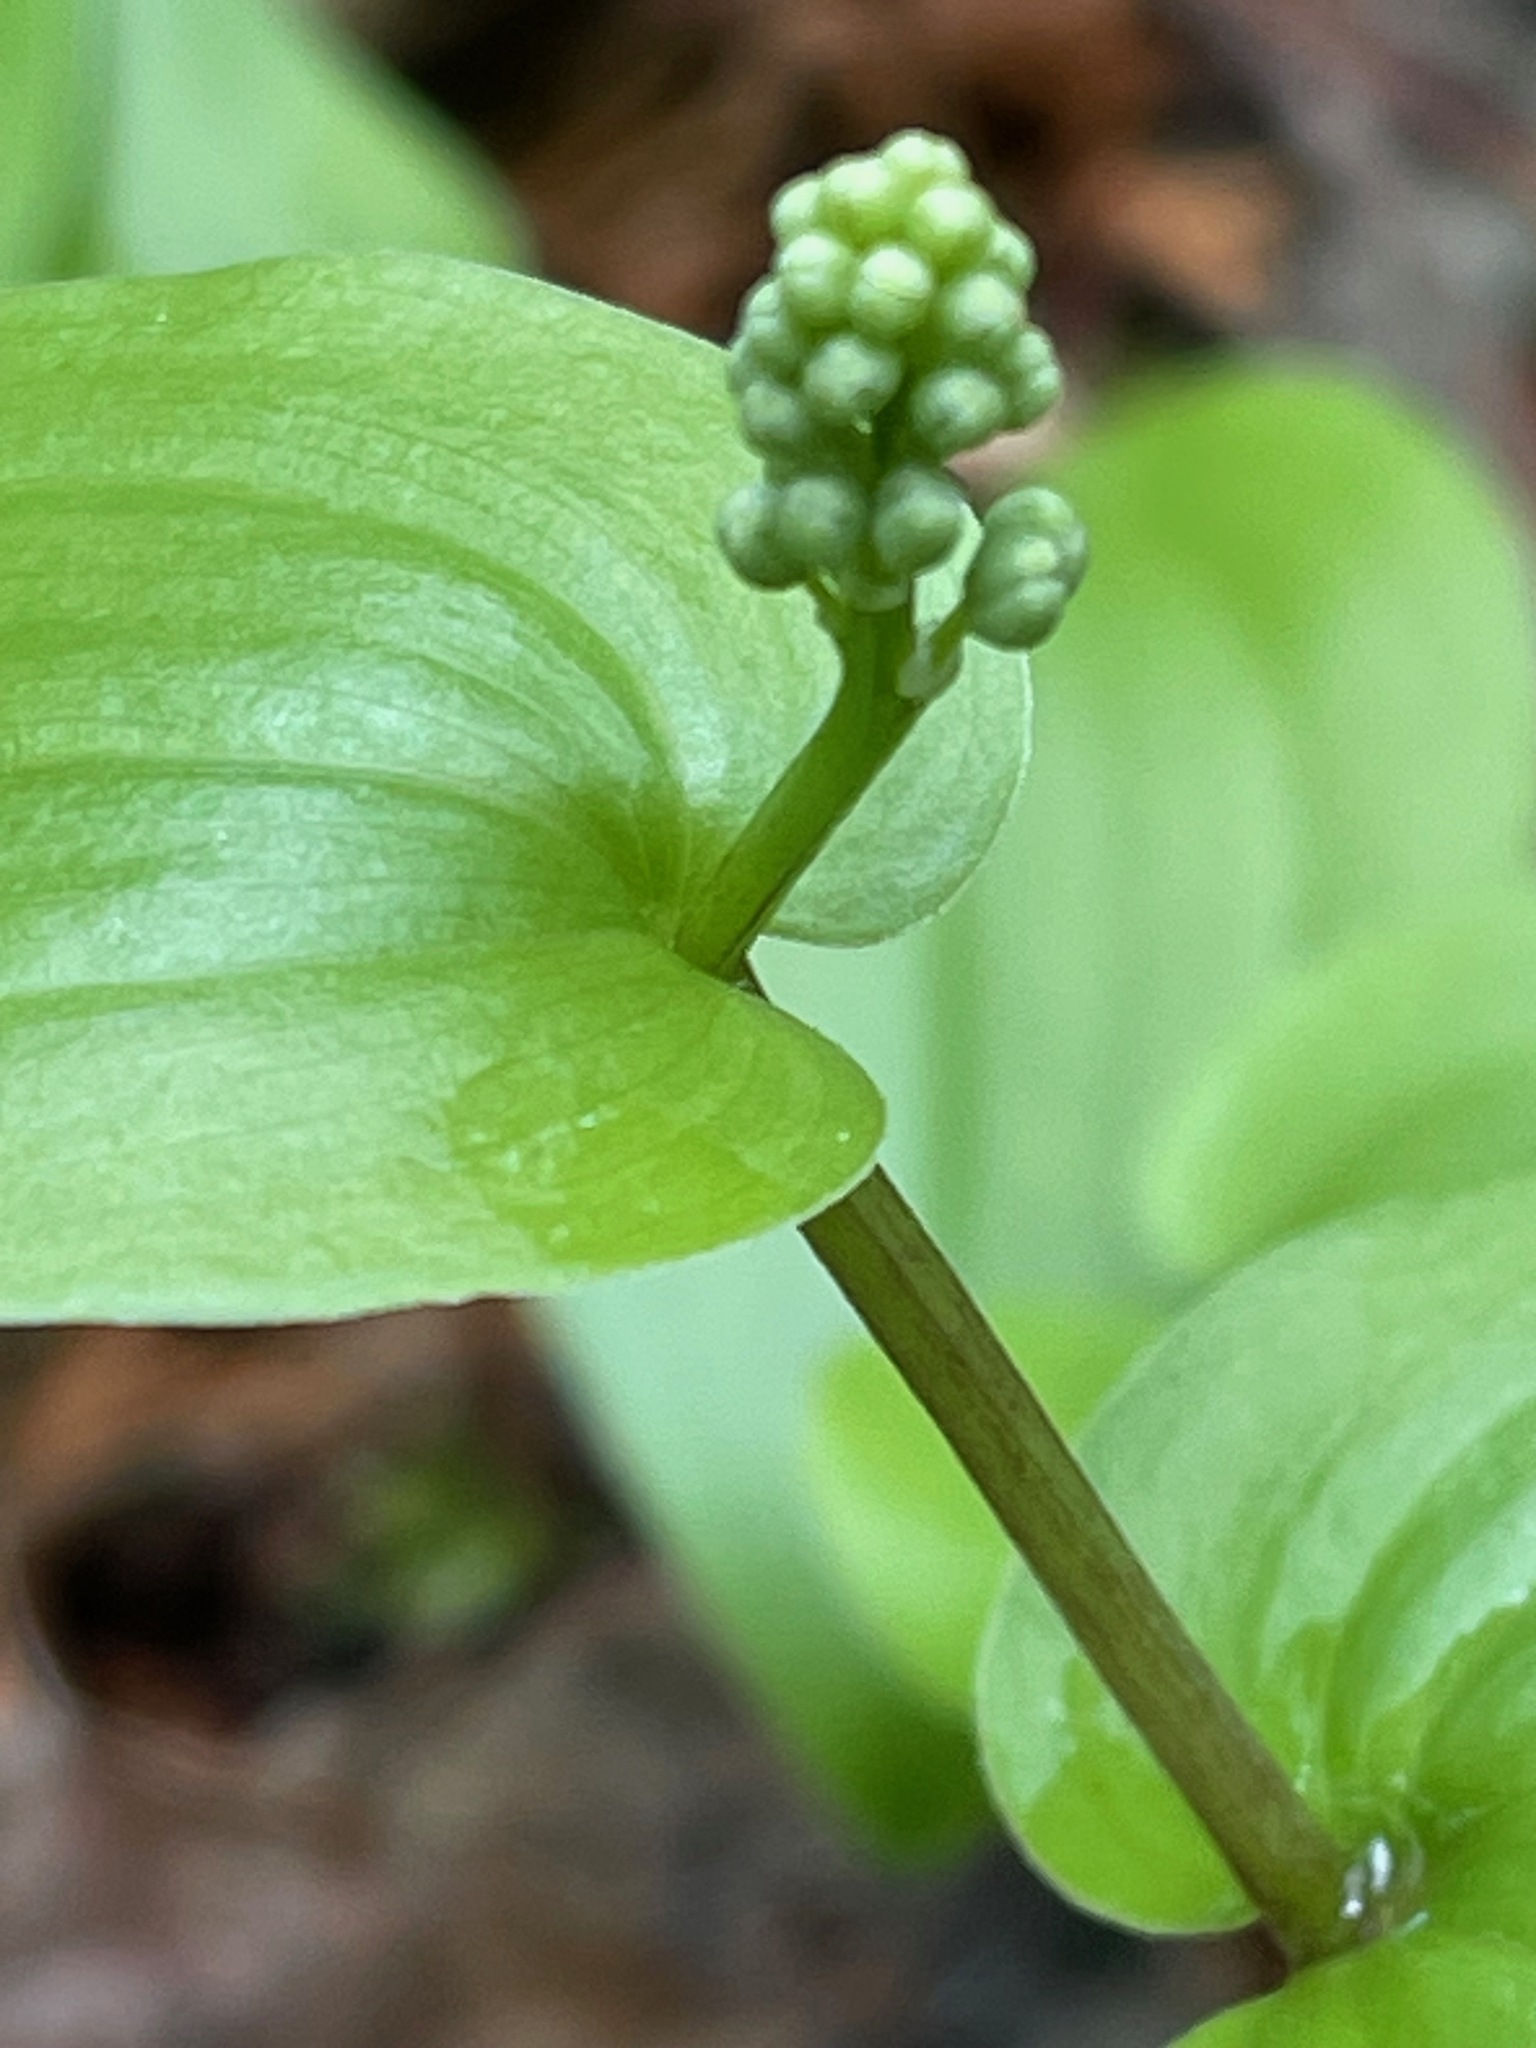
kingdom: Plantae
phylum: Tracheophyta
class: Liliopsida
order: Asparagales
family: Asparagaceae
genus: Maianthemum
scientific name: Maianthemum canadense
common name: False lily-of-the-valley
